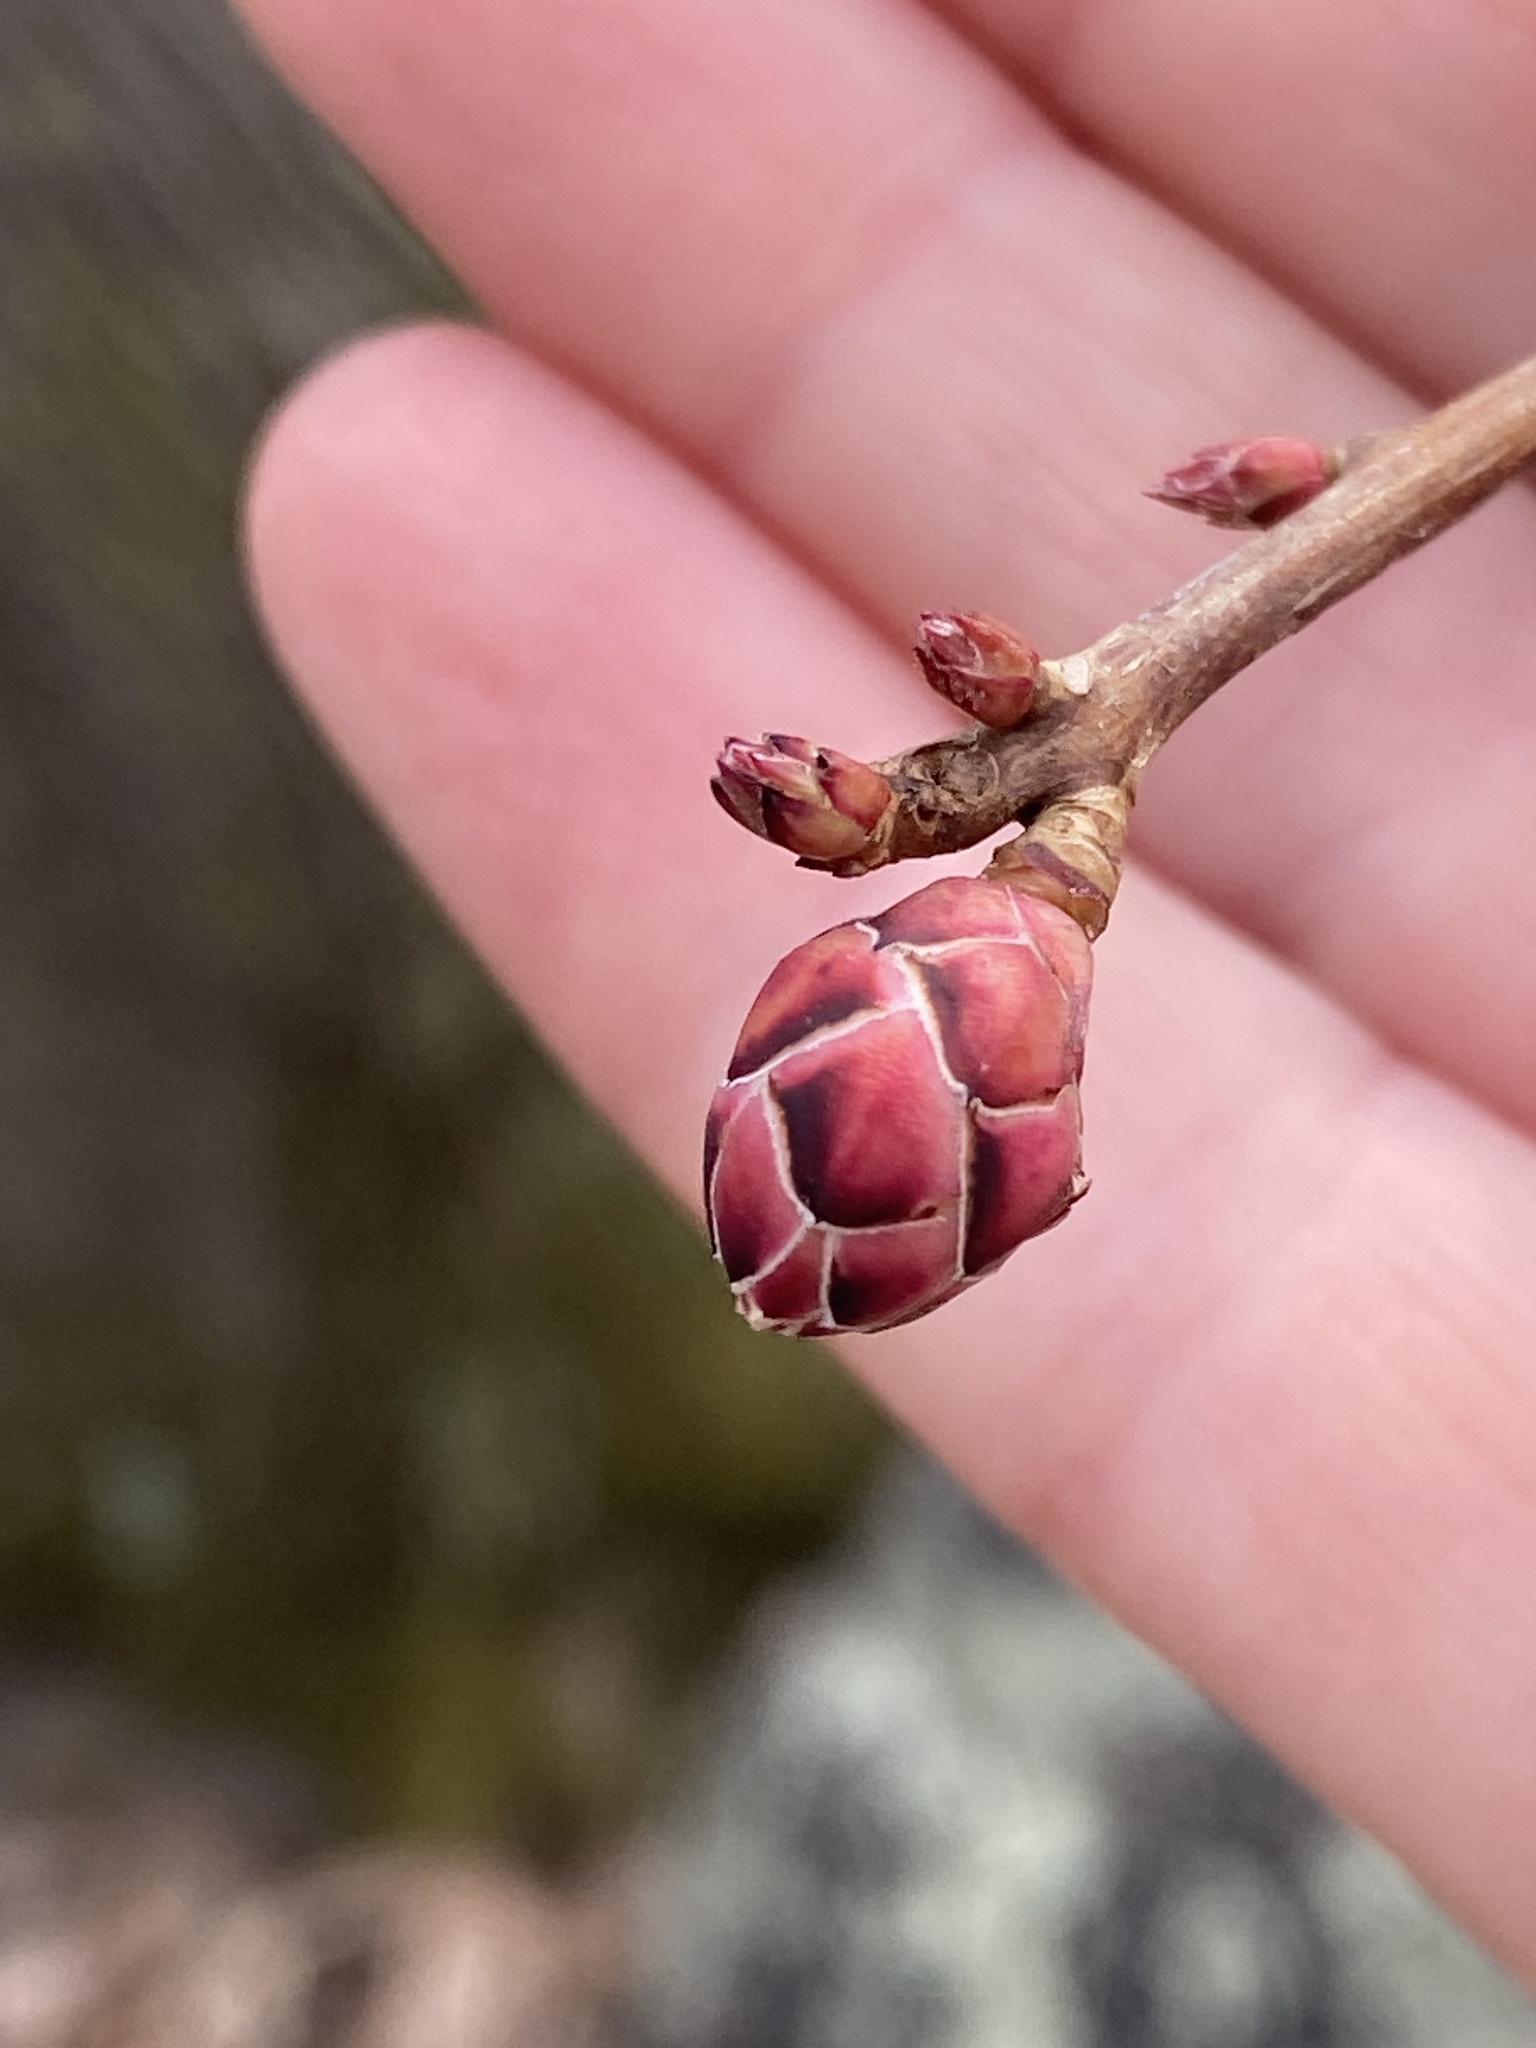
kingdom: Plantae
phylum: Tracheophyta
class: Magnoliopsida
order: Ericales
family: Ericaceae
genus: Rhododendron
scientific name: Rhododendron periclymenoides
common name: Election-pink
